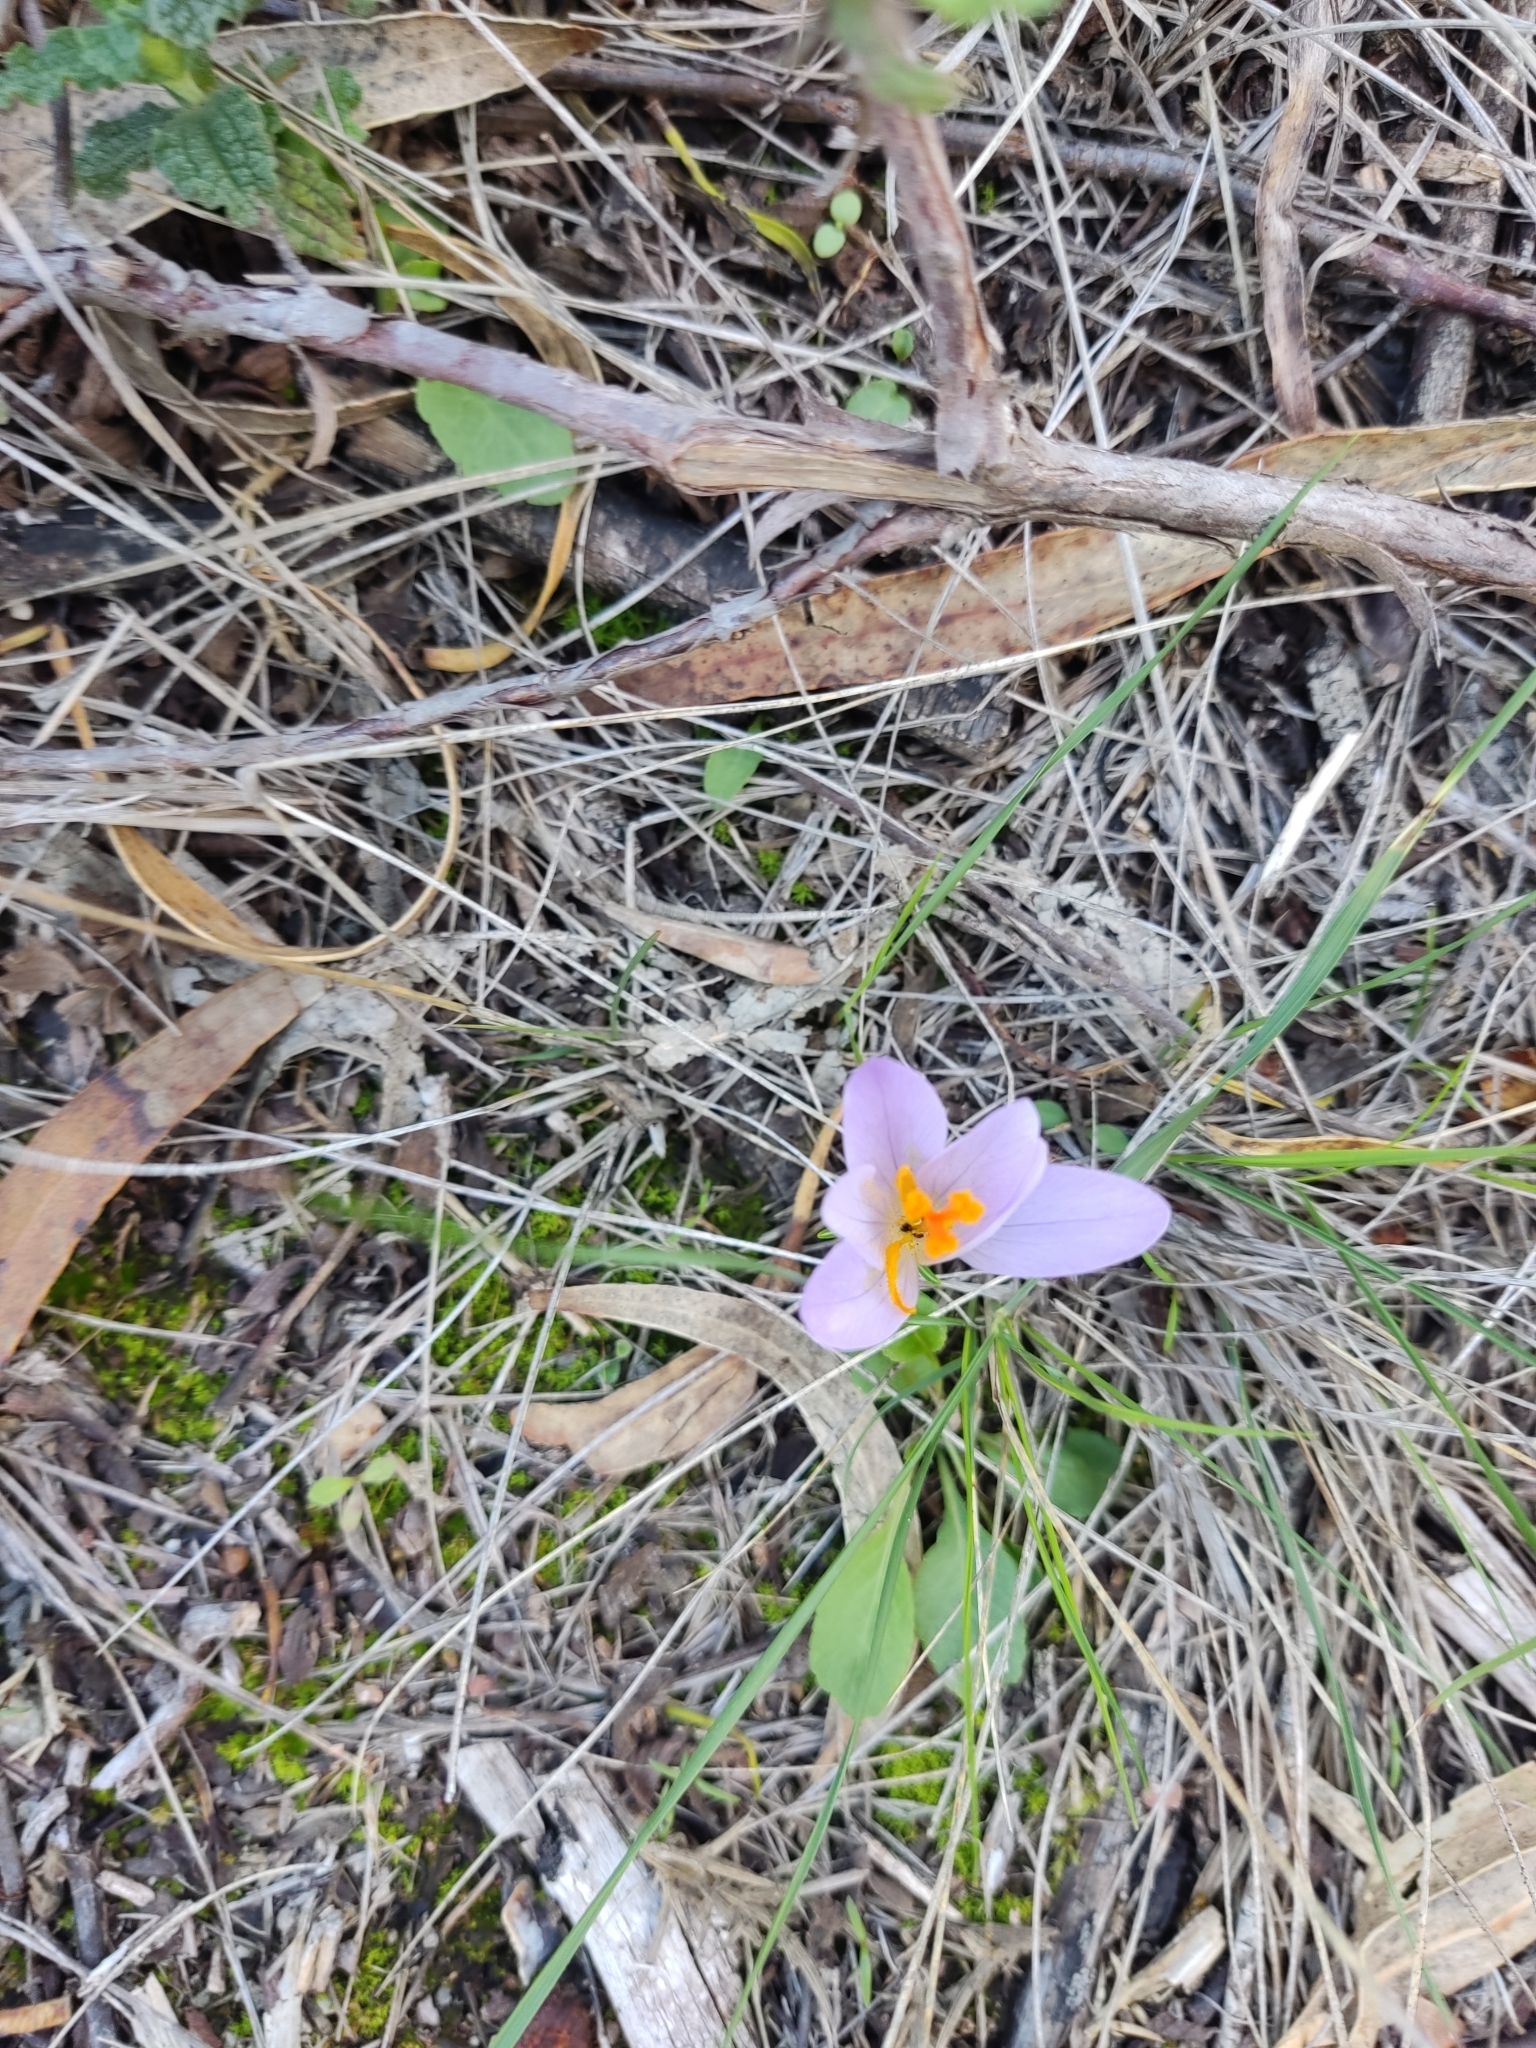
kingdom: Plantae
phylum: Tracheophyta
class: Liliopsida
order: Asparagales
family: Iridaceae
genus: Crocus
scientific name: Crocus serotinus
